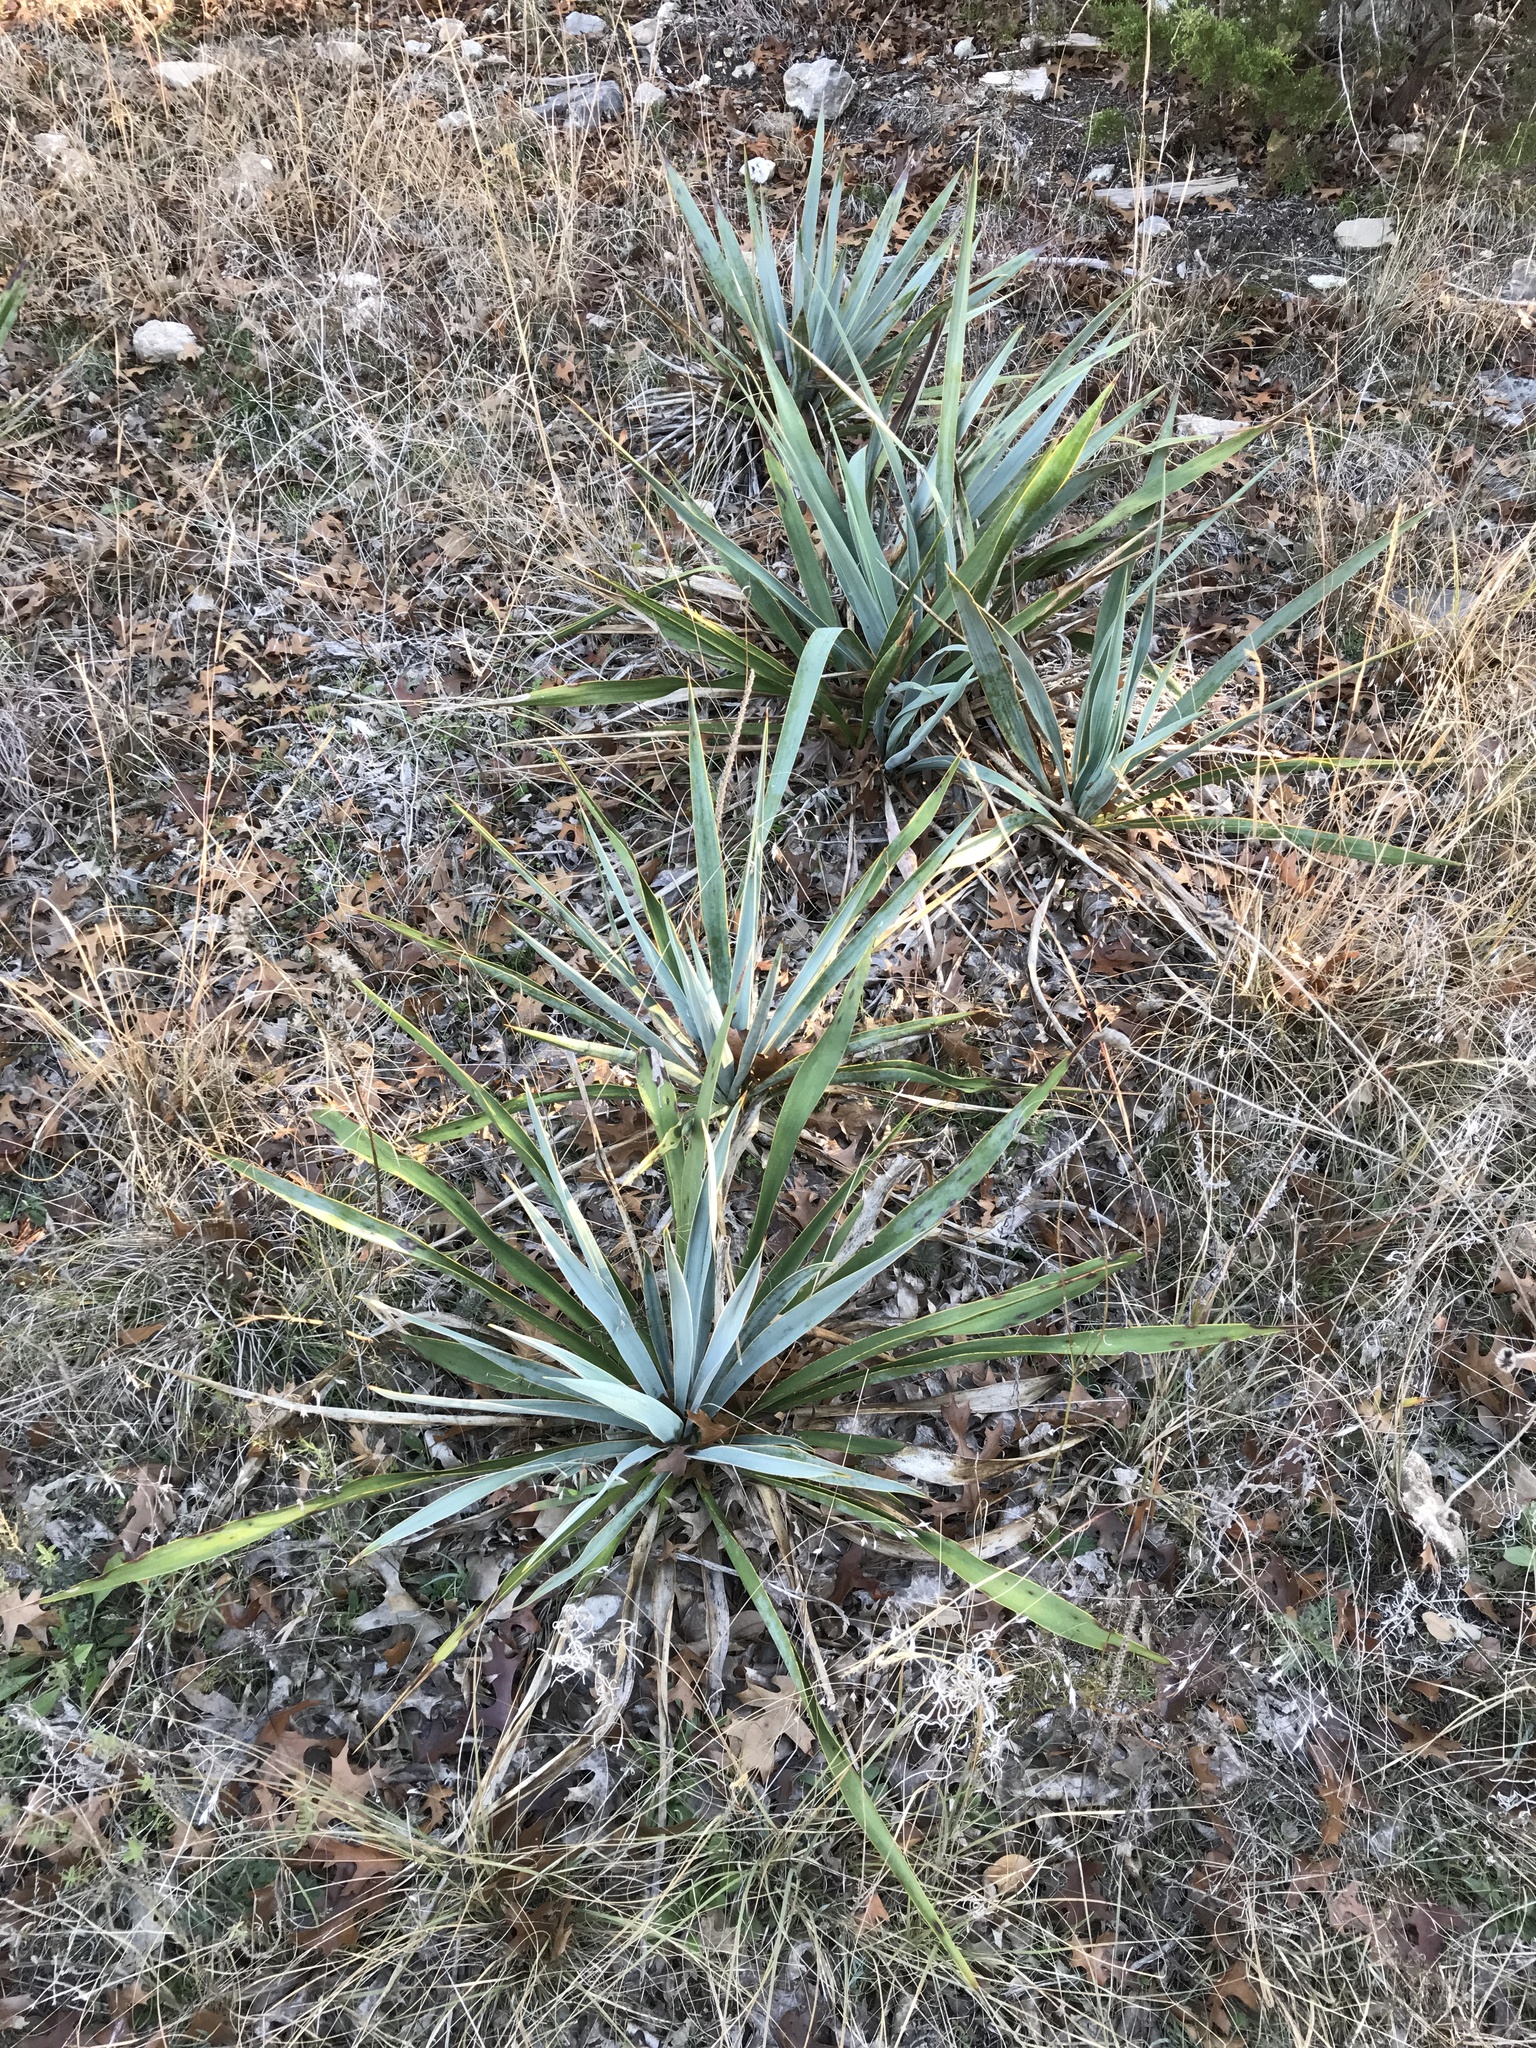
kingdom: Plantae
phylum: Tracheophyta
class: Liliopsida
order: Asparagales
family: Asparagaceae
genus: Yucca
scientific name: Yucca pallida
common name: Pale leaf yucca
